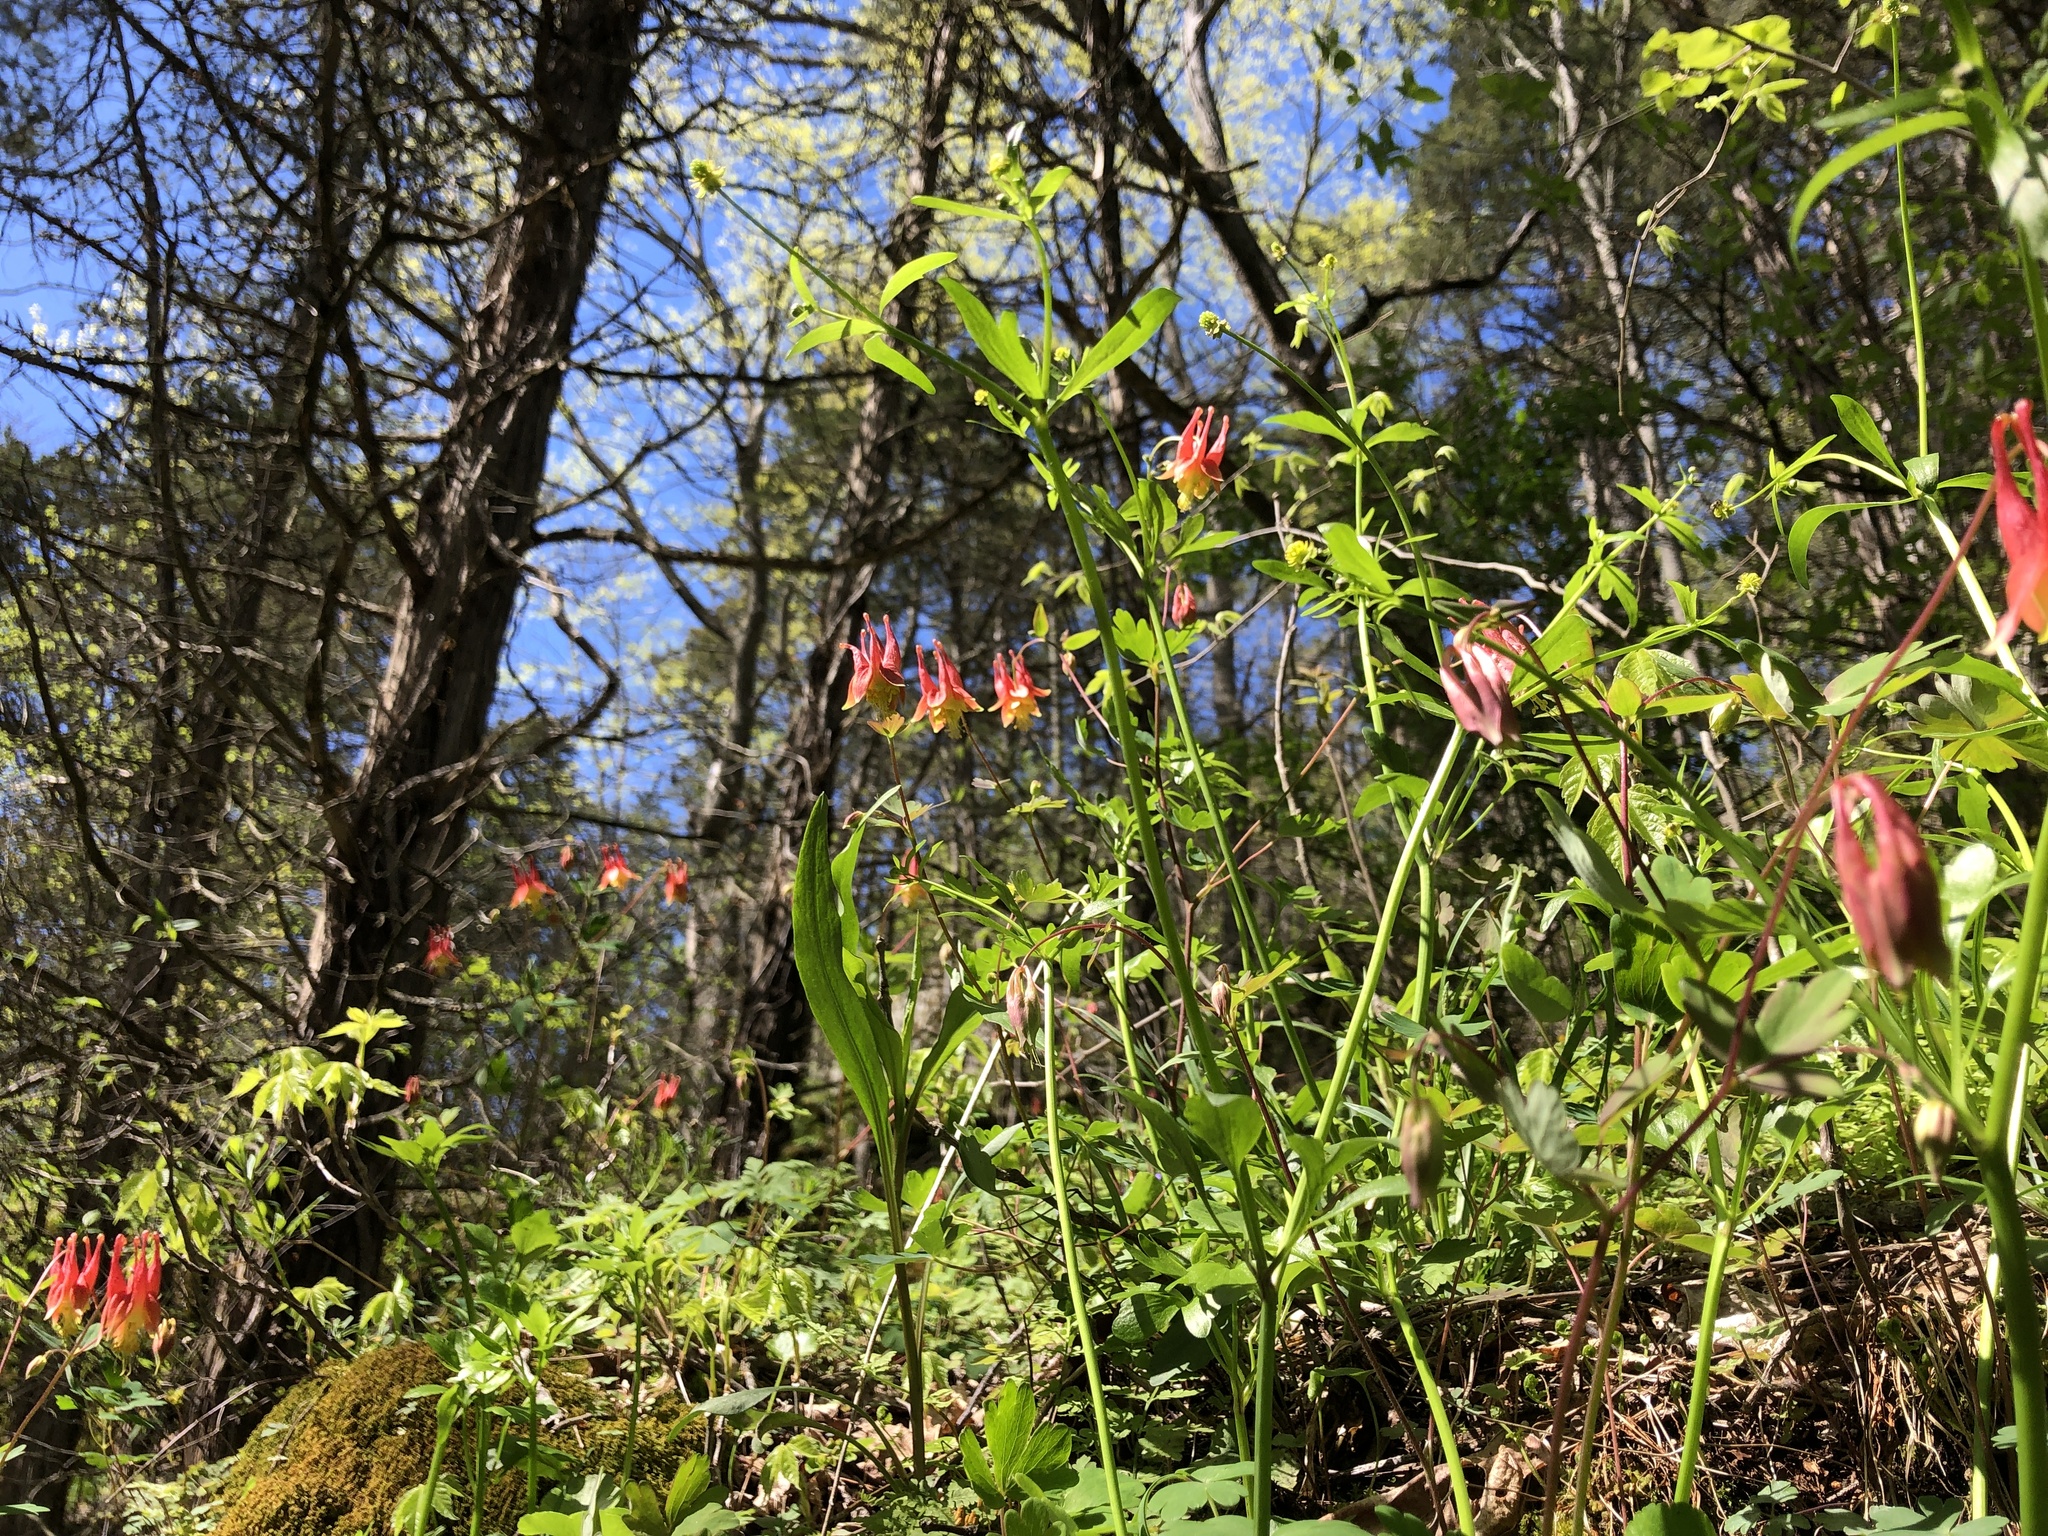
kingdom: Plantae
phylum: Tracheophyta
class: Magnoliopsida
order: Ranunculales
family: Ranunculaceae
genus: Aquilegia
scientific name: Aquilegia canadensis
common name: American columbine
